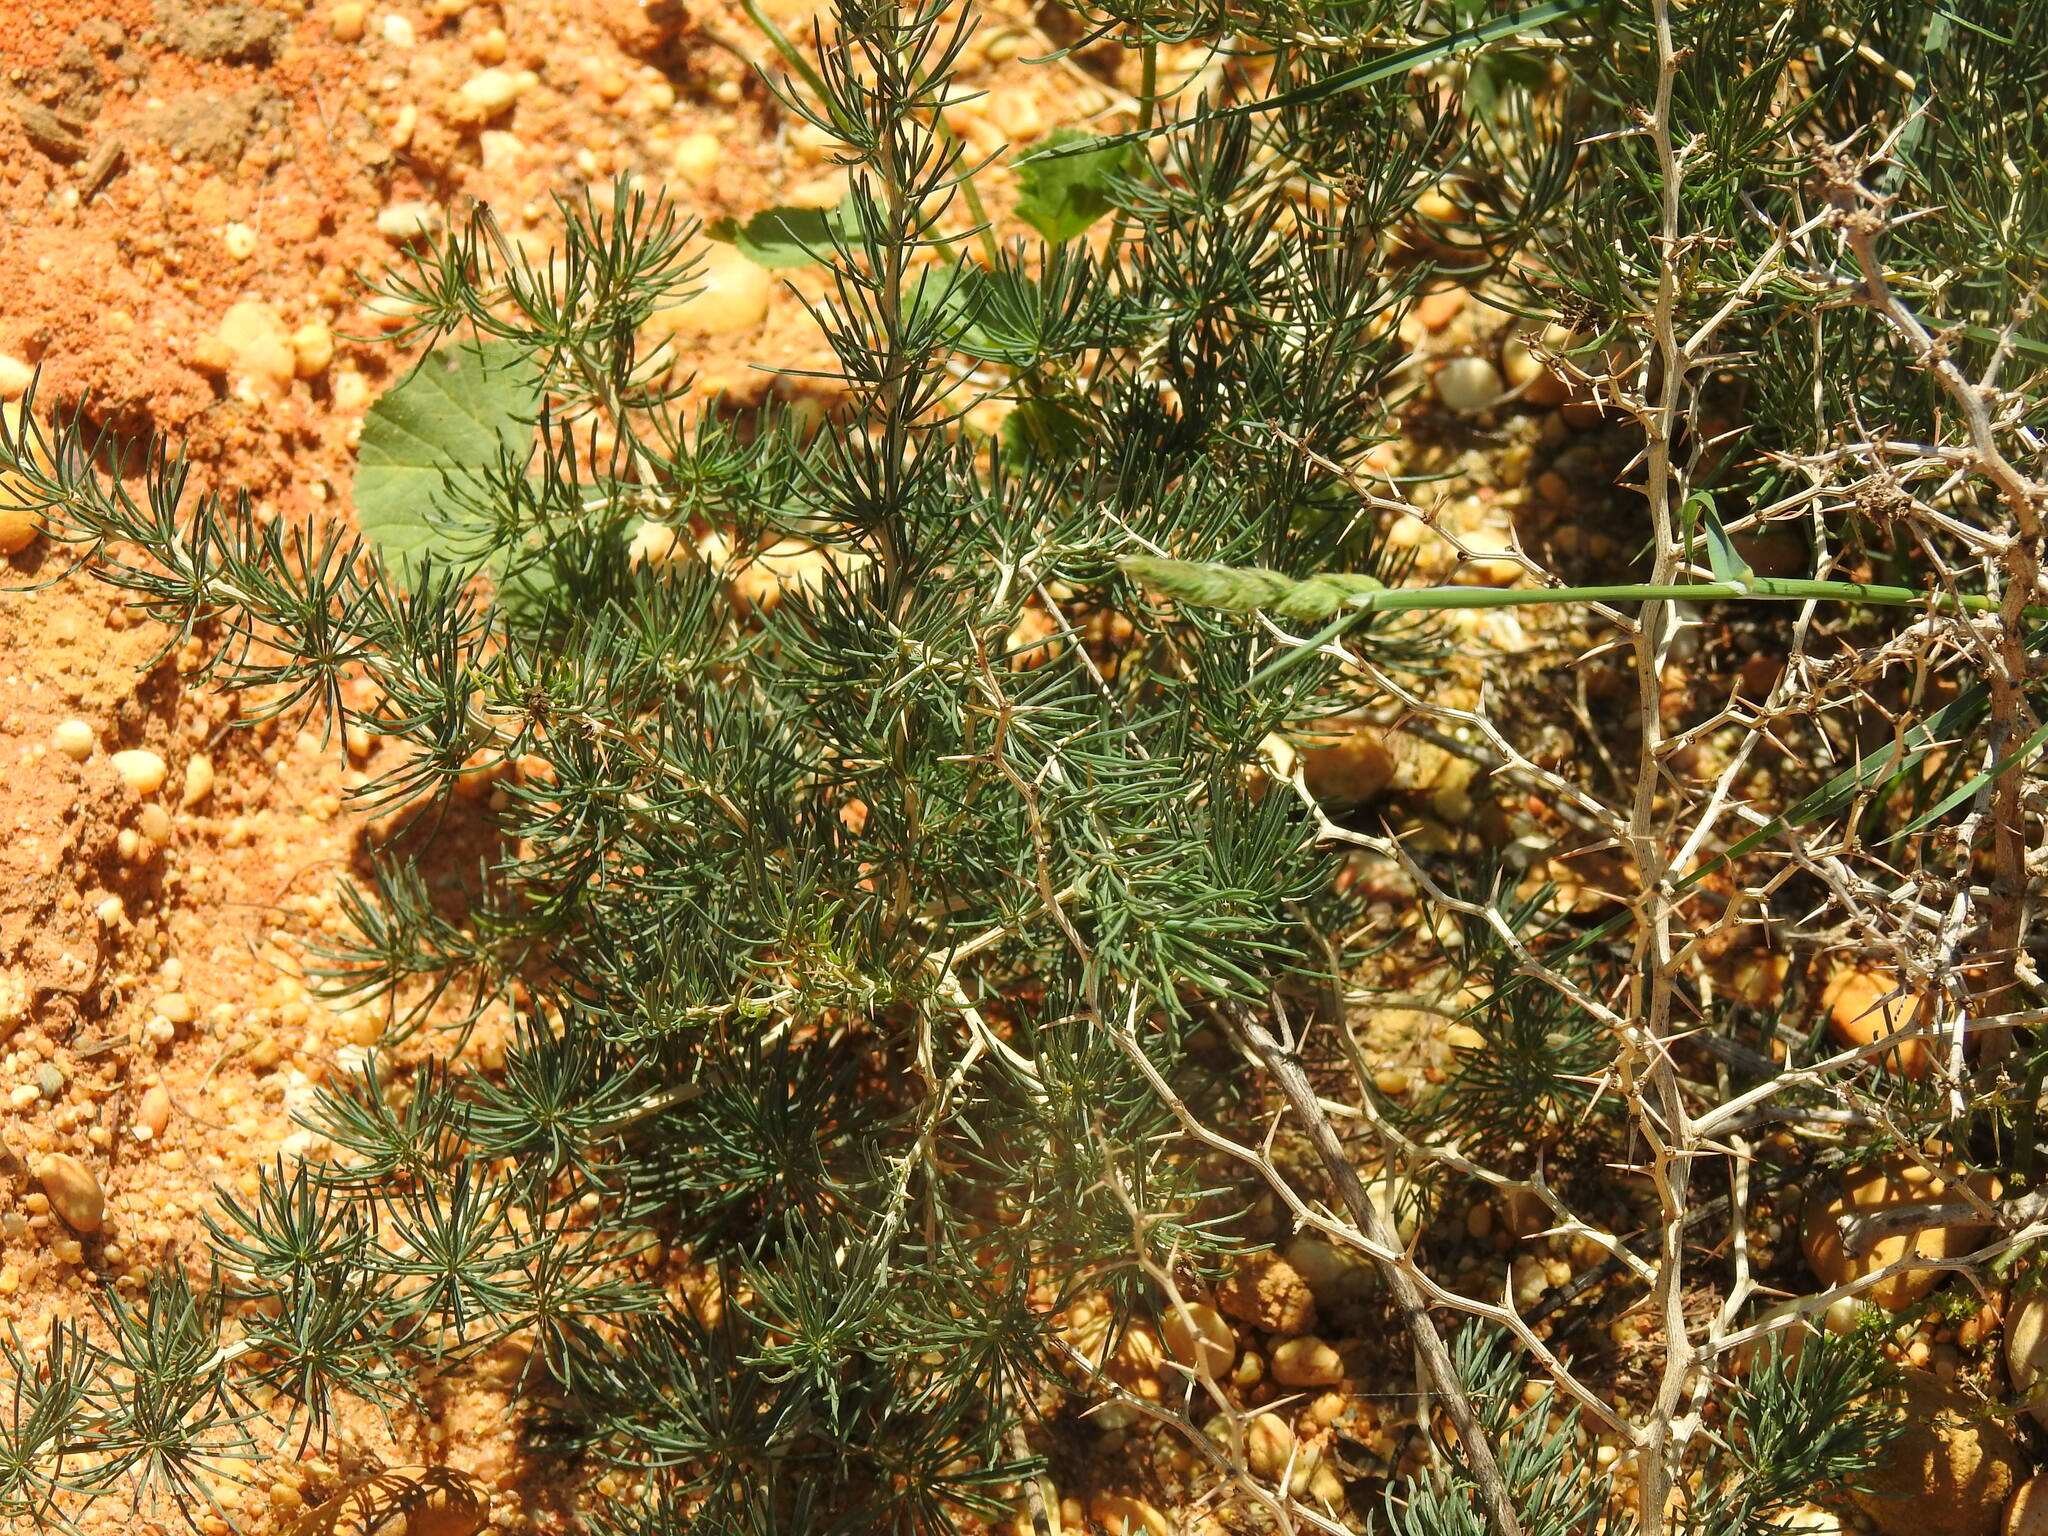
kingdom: Plantae
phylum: Tracheophyta
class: Liliopsida
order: Asparagales
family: Asparagaceae
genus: Asparagus
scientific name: Asparagus albus
